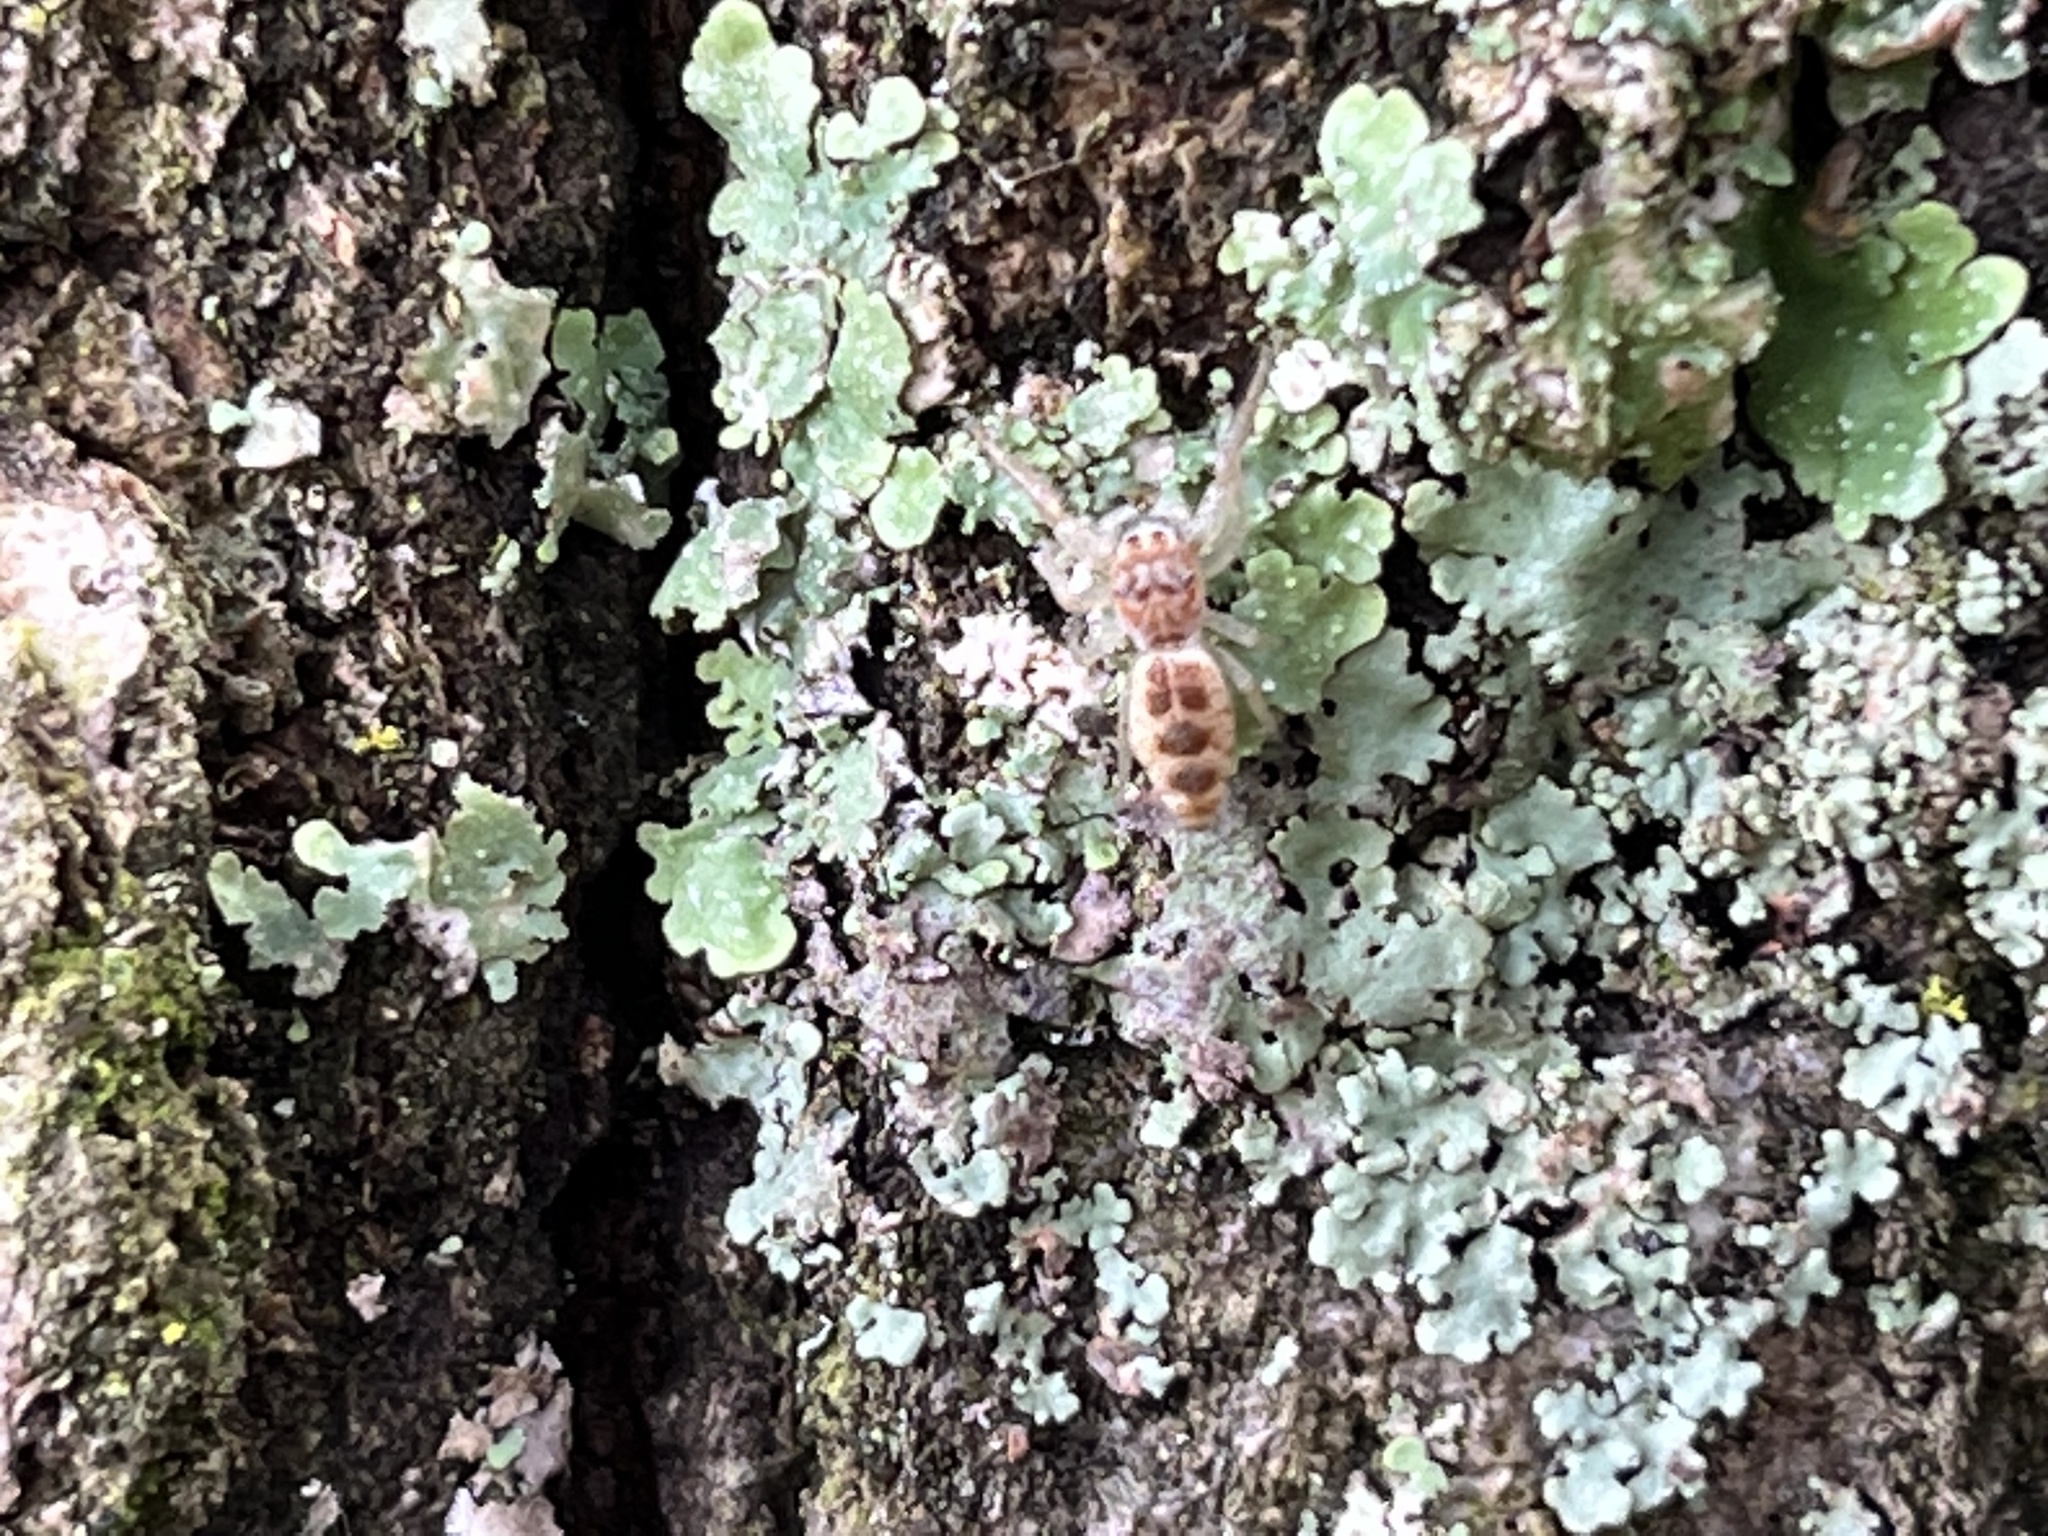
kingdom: Animalia
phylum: Arthropoda
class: Arachnida
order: Araneae
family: Salticidae
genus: Hentzia
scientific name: Hentzia mitrata
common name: White-jawed jumping spider
